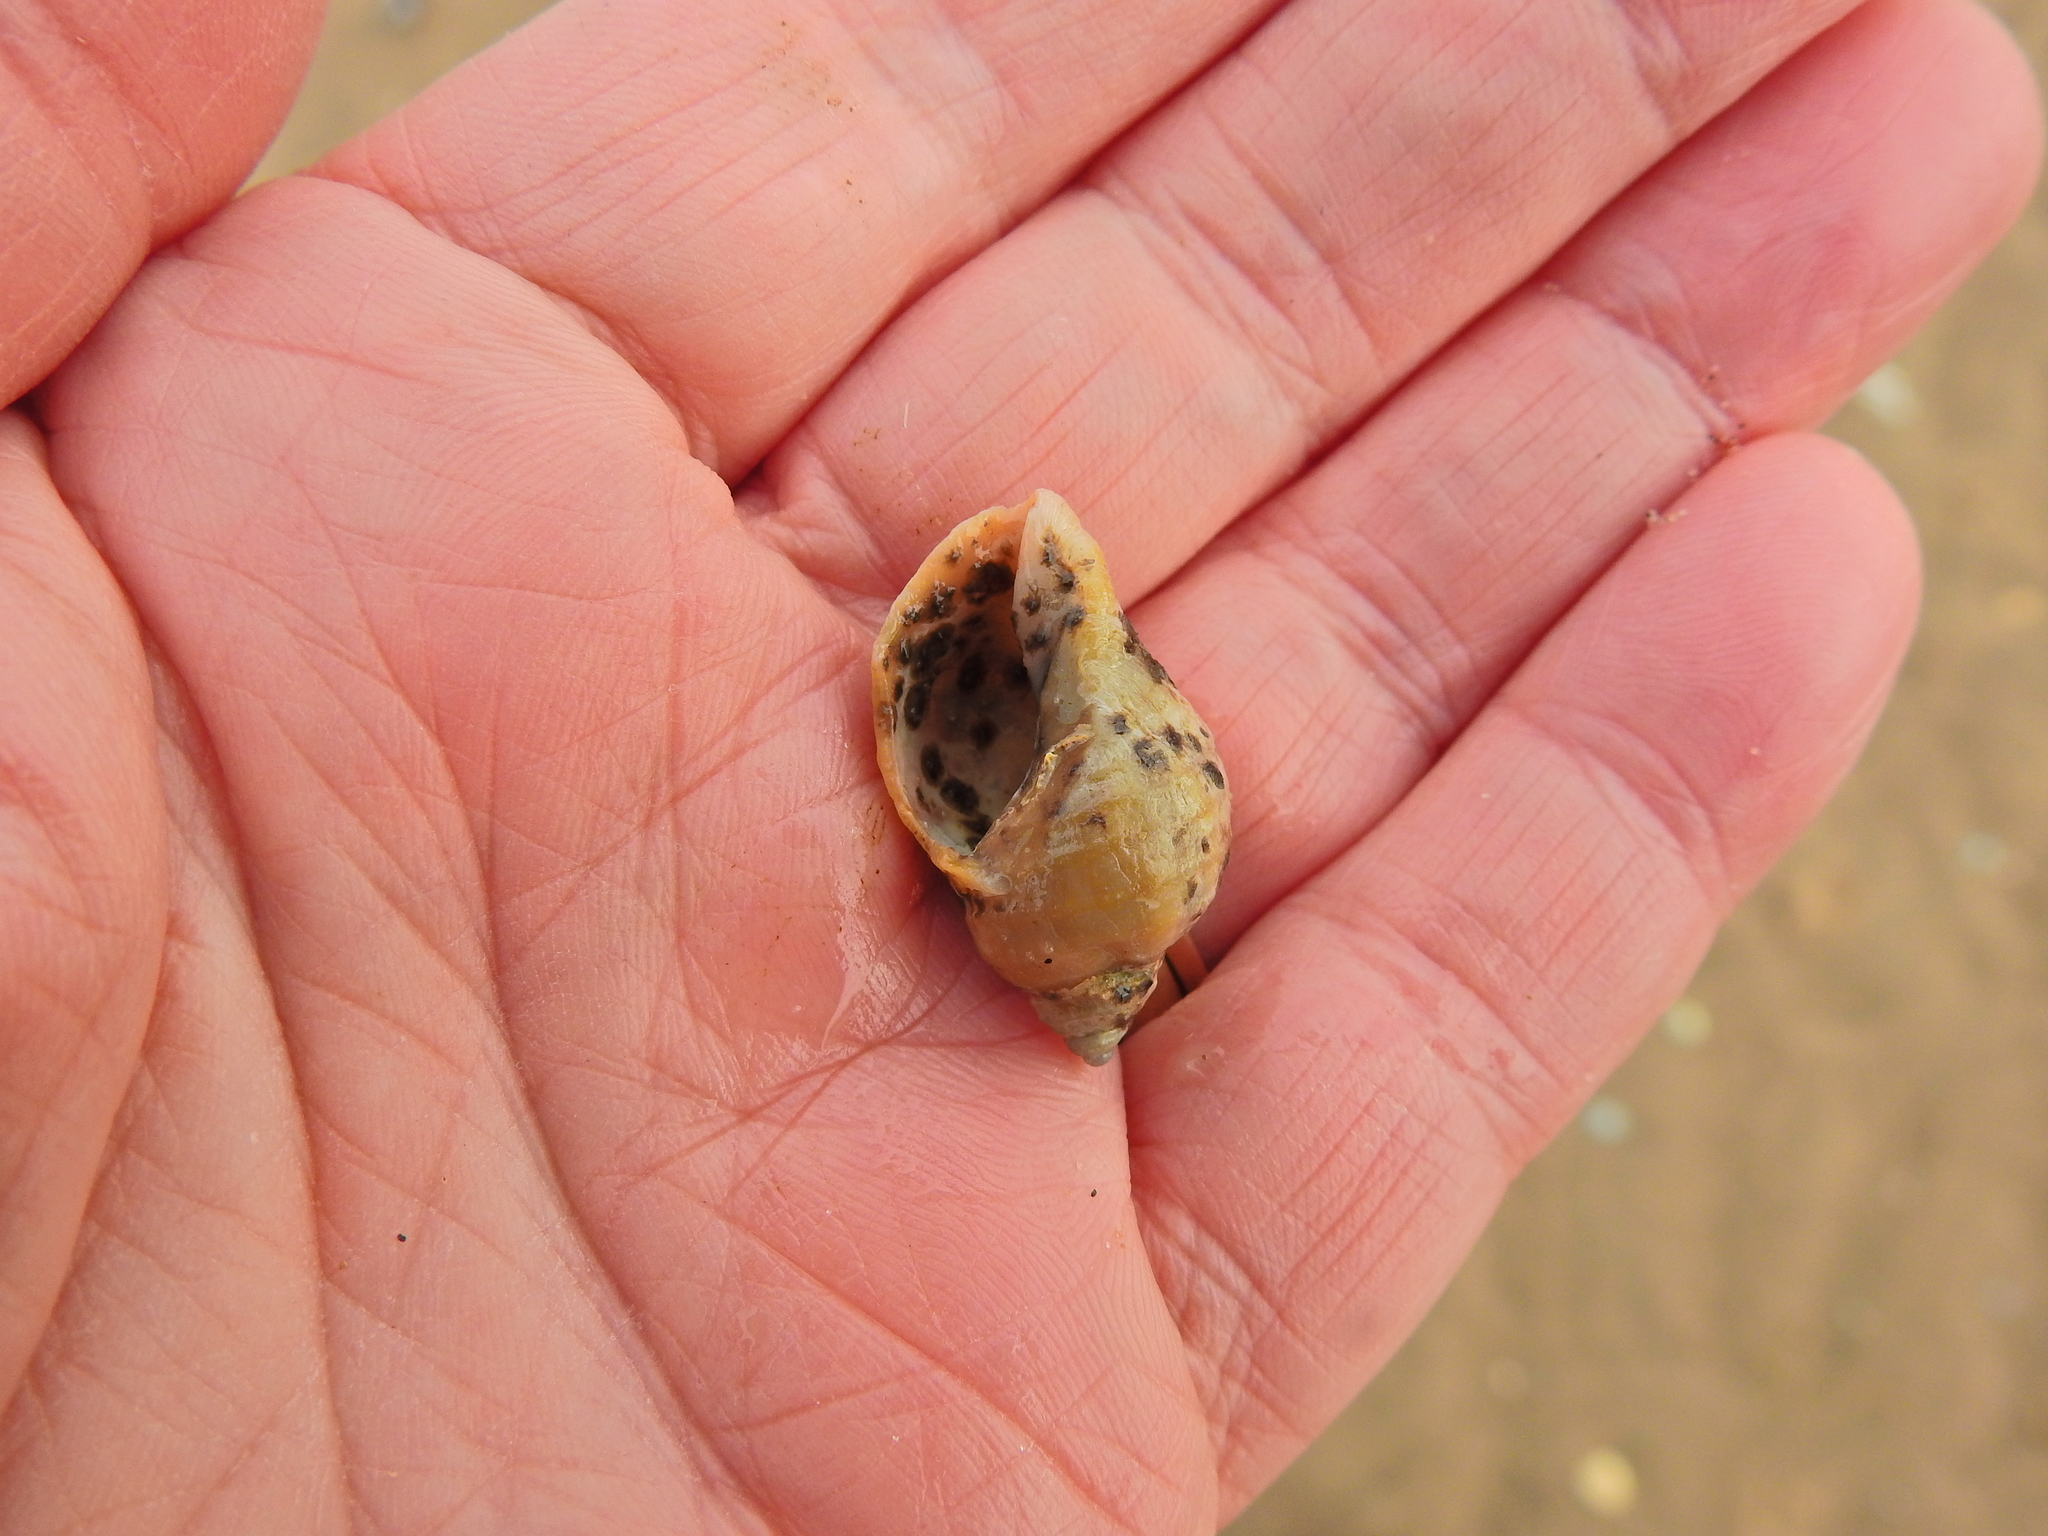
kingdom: Animalia
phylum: Mollusca
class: Gastropoda
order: Neogastropoda
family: Muricidae
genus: Nucella
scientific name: Nucella lapillus
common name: Dog whelk
